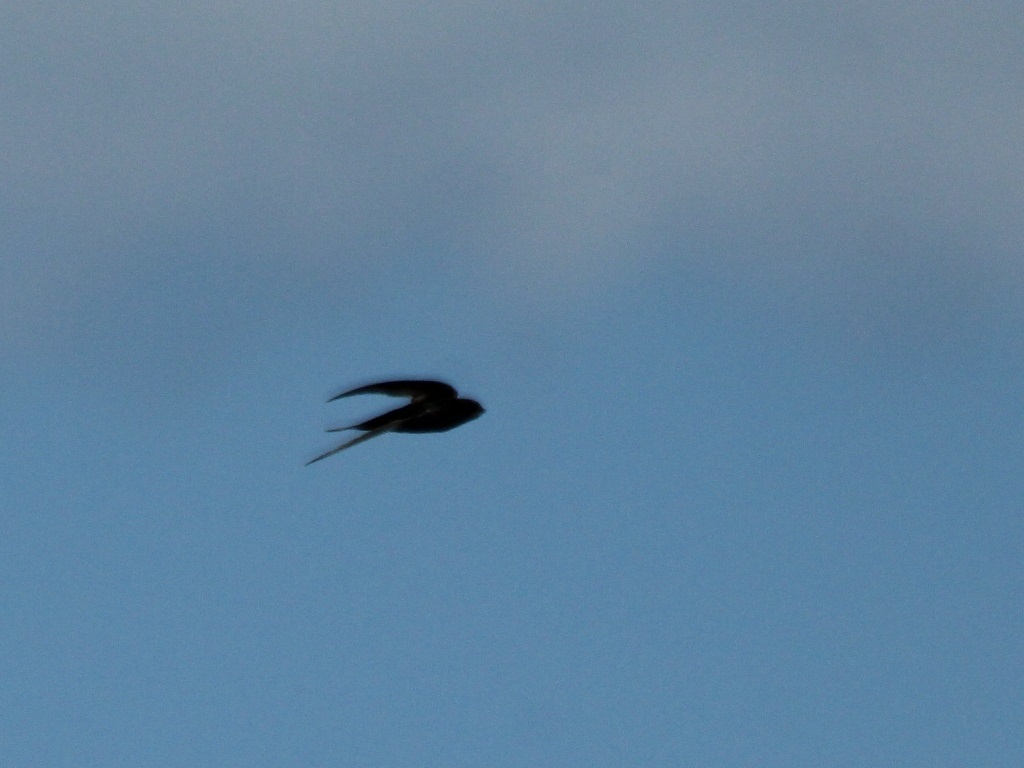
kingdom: Animalia
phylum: Chordata
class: Aves
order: Apodiformes
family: Apodidae
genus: Apus
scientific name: Apus apus
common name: Common swift
